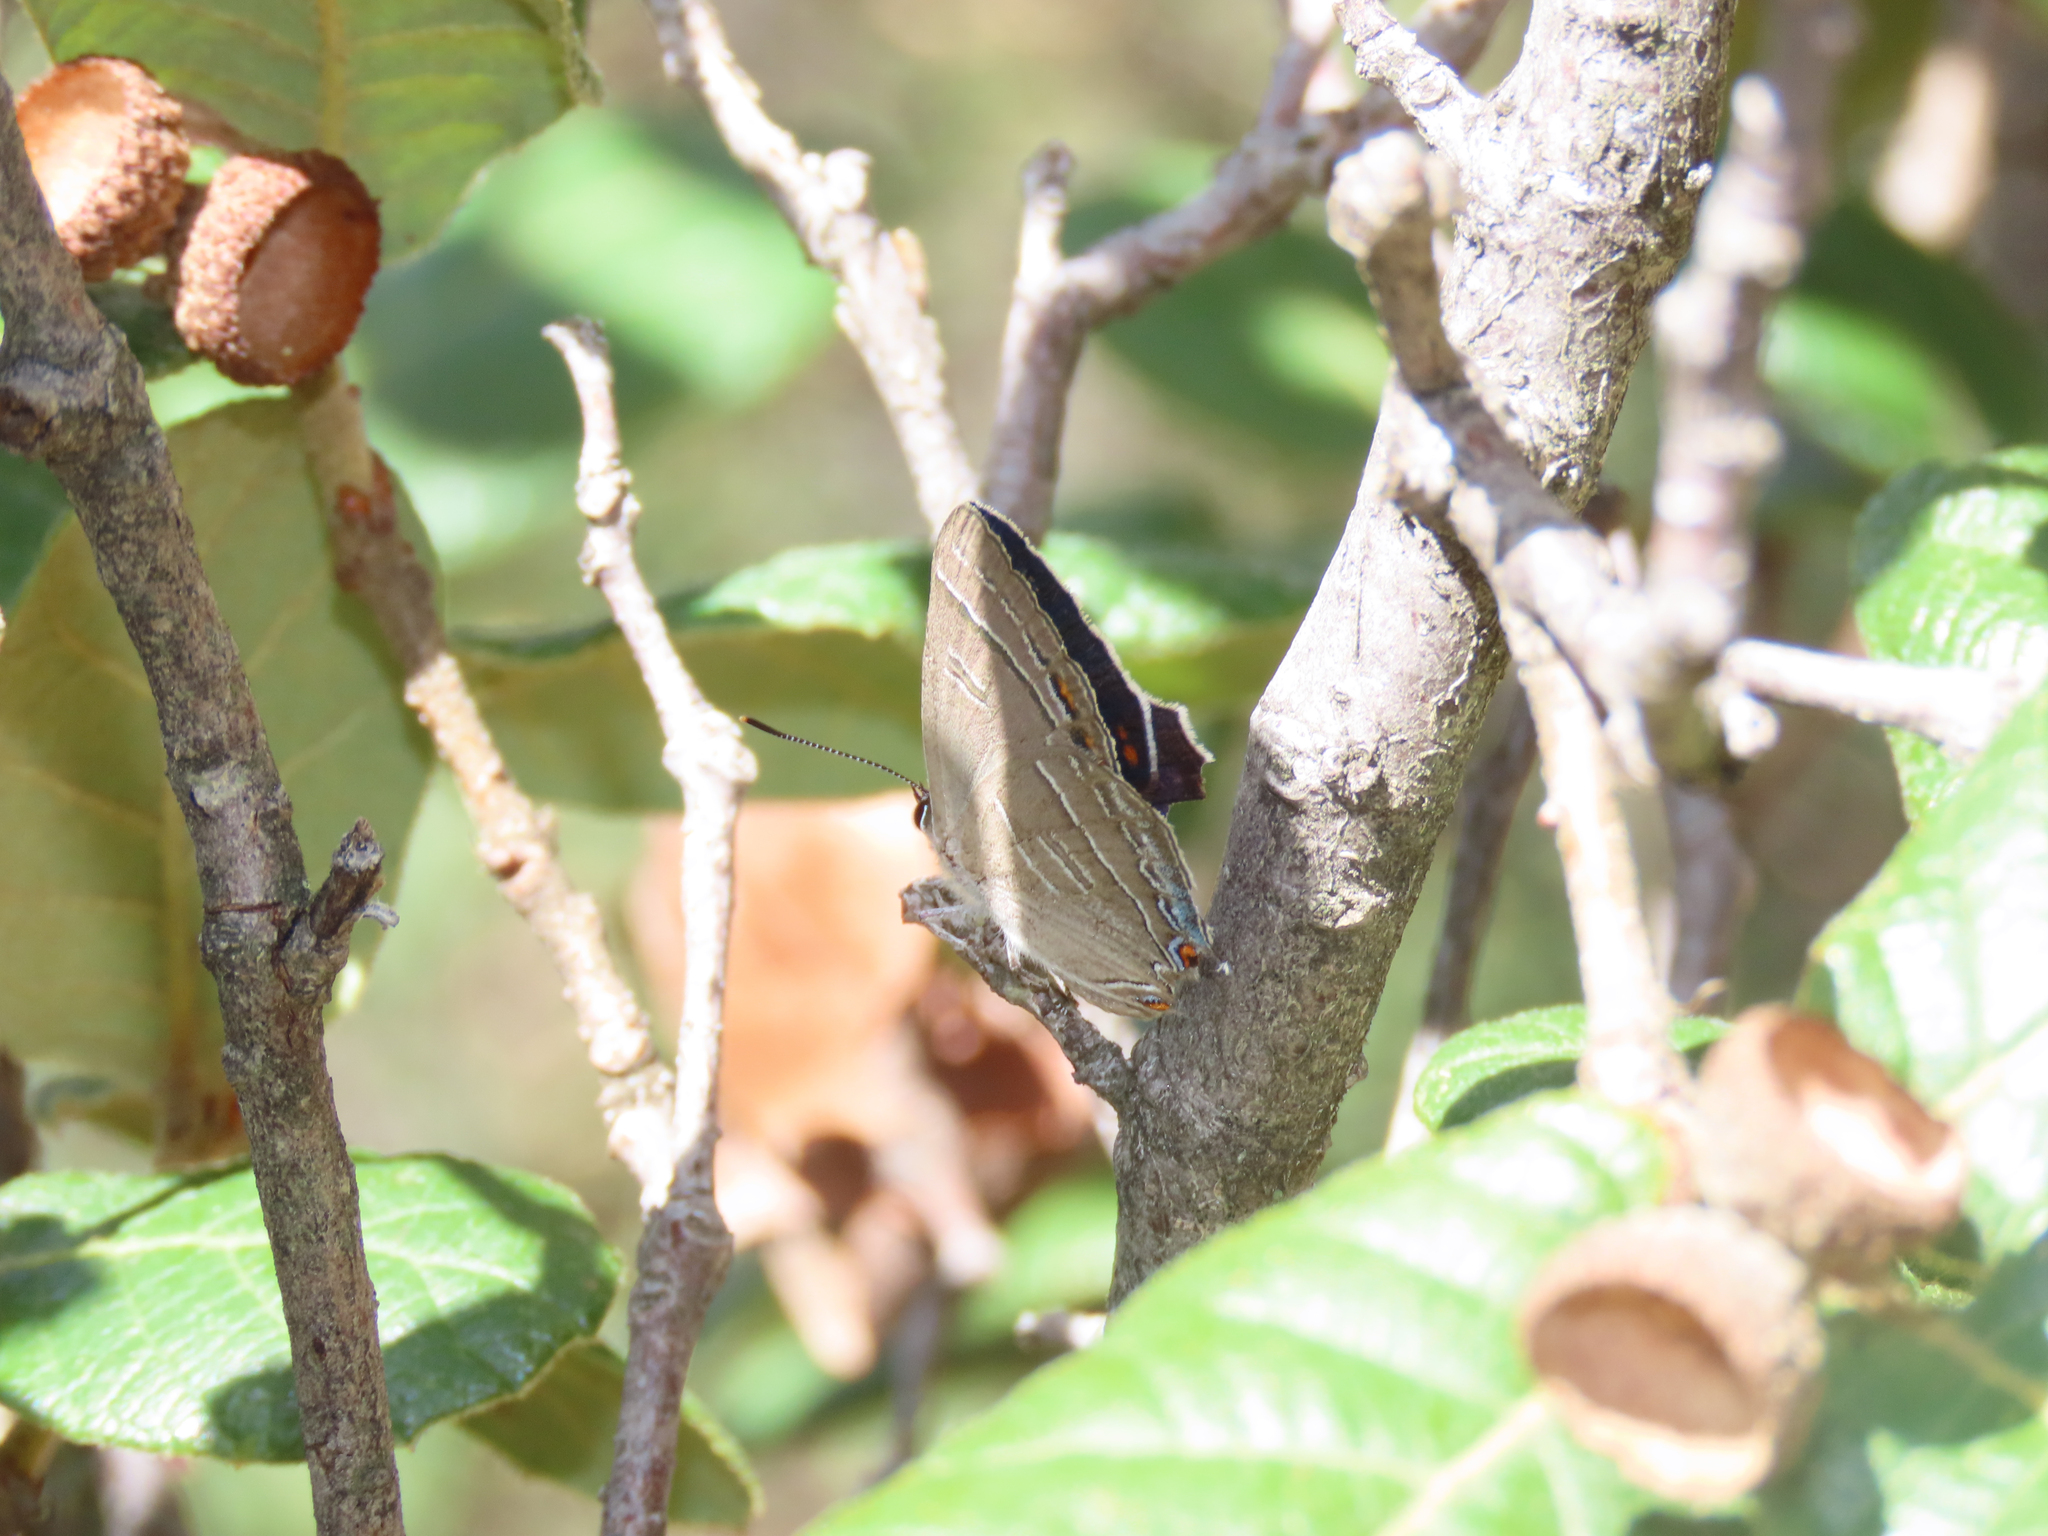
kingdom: Animalia
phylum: Arthropoda
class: Insecta
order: Lepidoptera
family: Lycaenidae
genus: Hypaurotis
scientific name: Hypaurotis crysalus
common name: Colorado hairstreak
